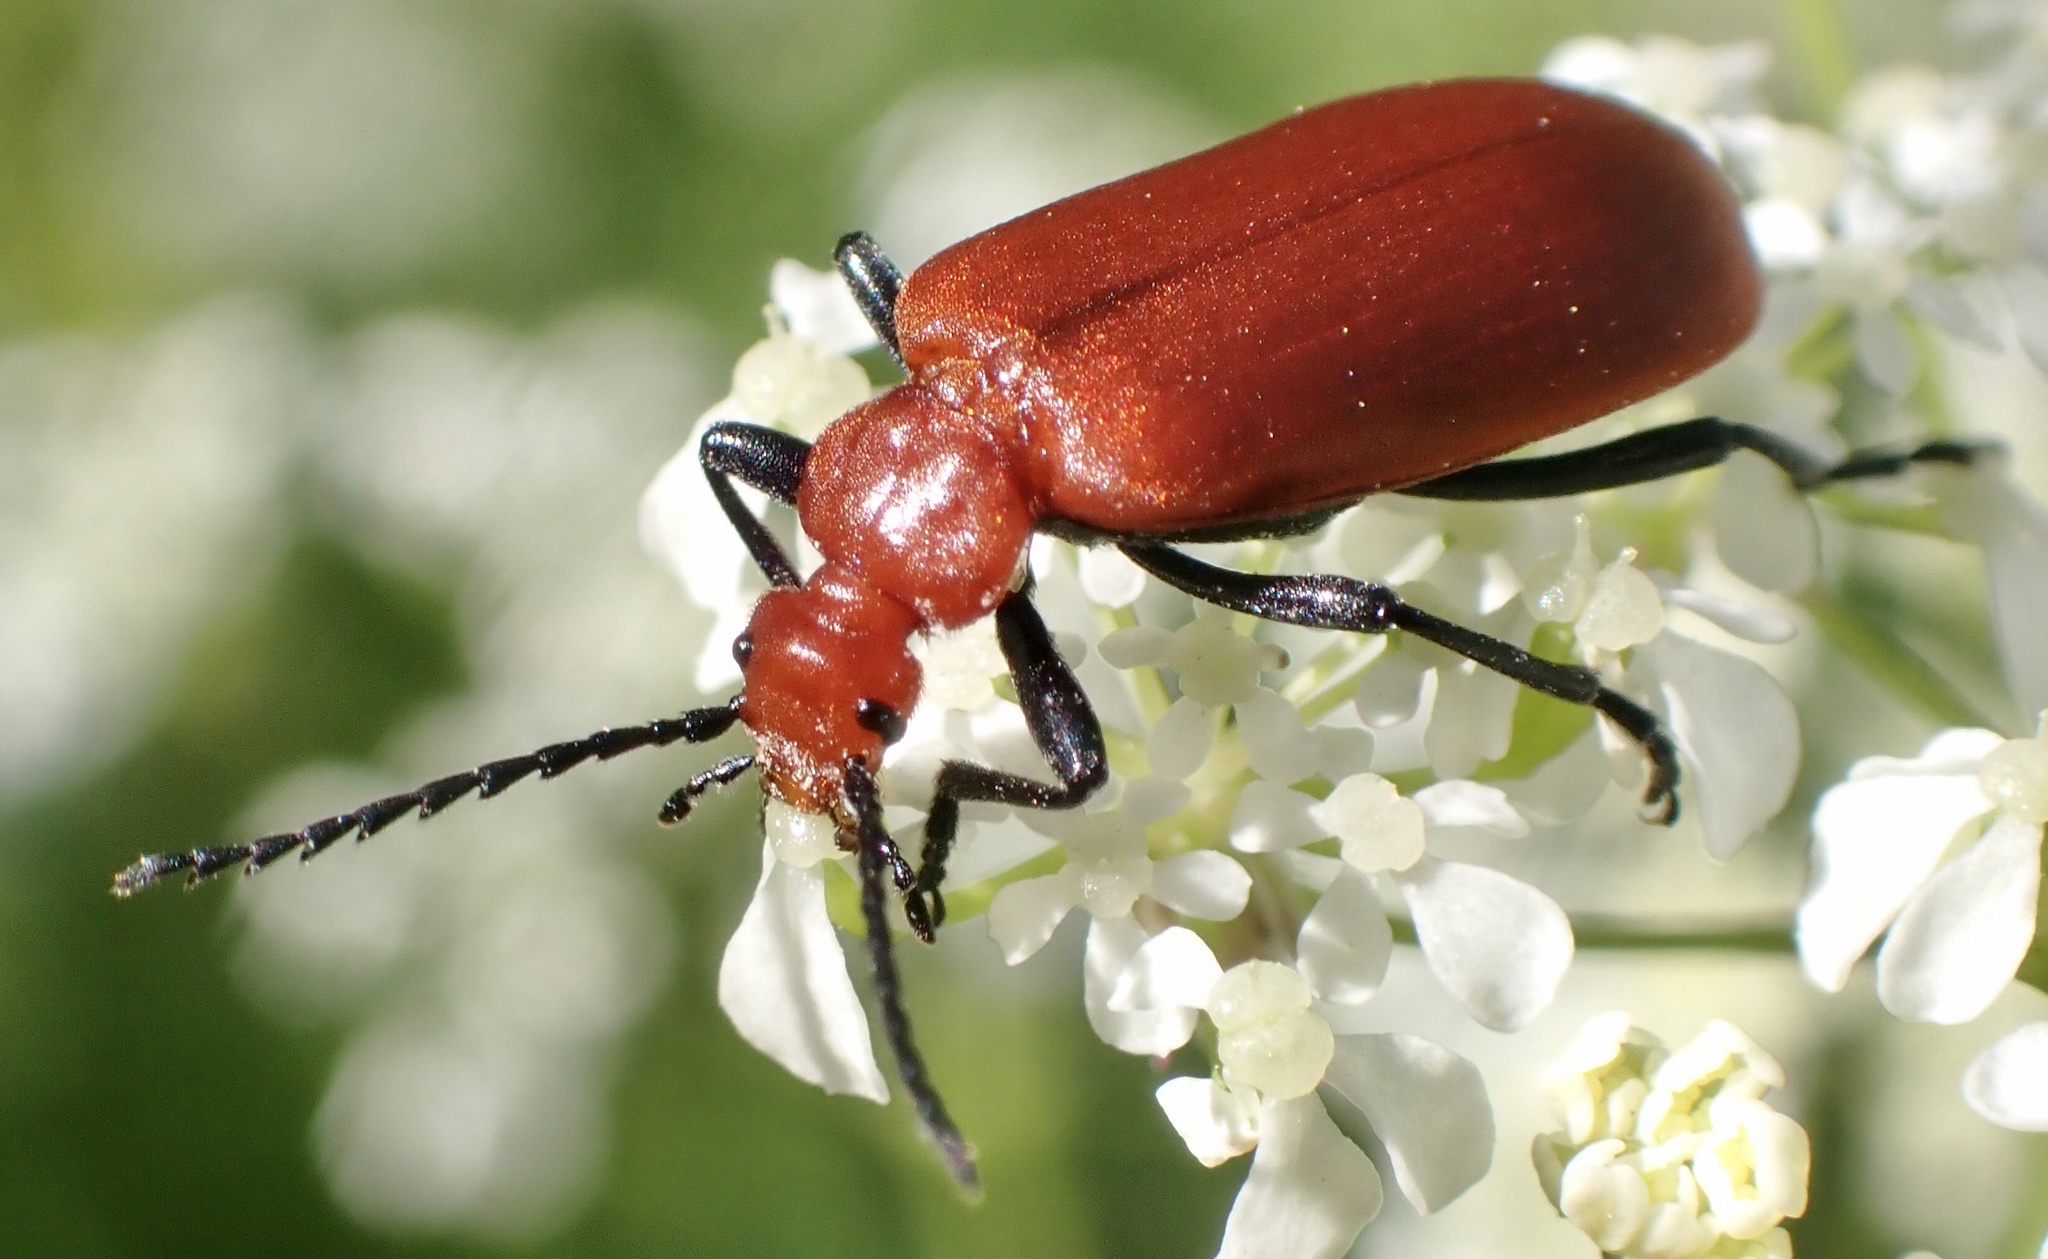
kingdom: Animalia
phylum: Arthropoda
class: Insecta
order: Coleoptera
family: Pyrochroidae
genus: Pyrochroa
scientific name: Pyrochroa serraticornis
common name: Red-headed cardinal beetle
